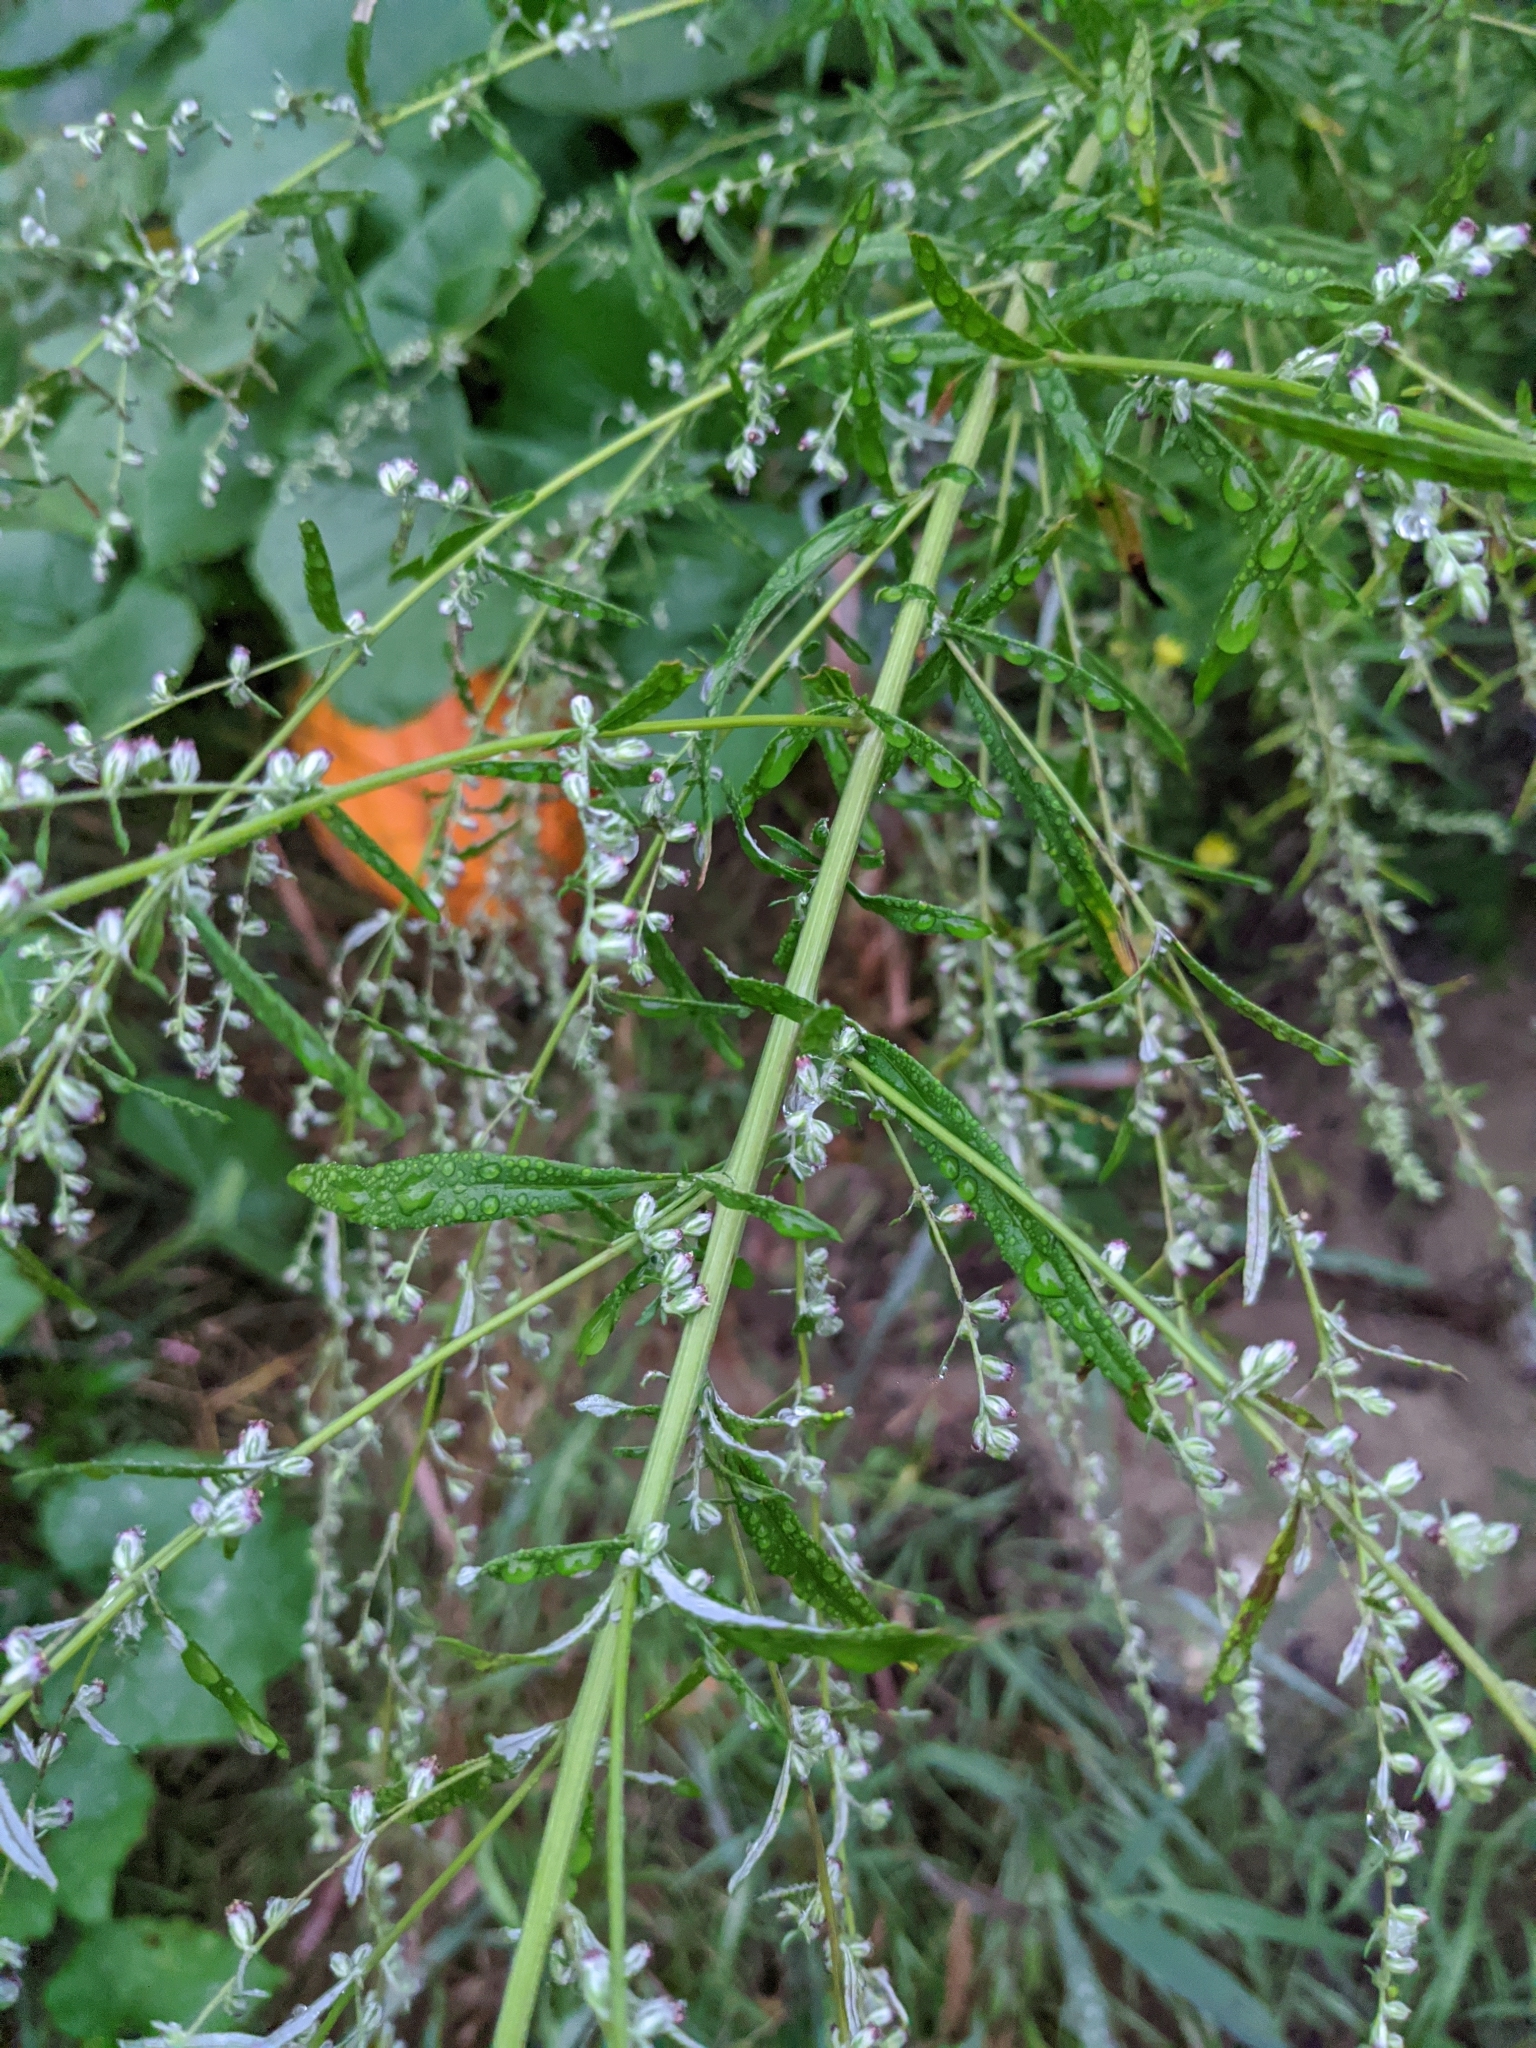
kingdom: Plantae
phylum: Tracheophyta
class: Magnoliopsida
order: Asterales
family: Asteraceae
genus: Artemisia
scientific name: Artemisia vulgaris
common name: Mugwort
